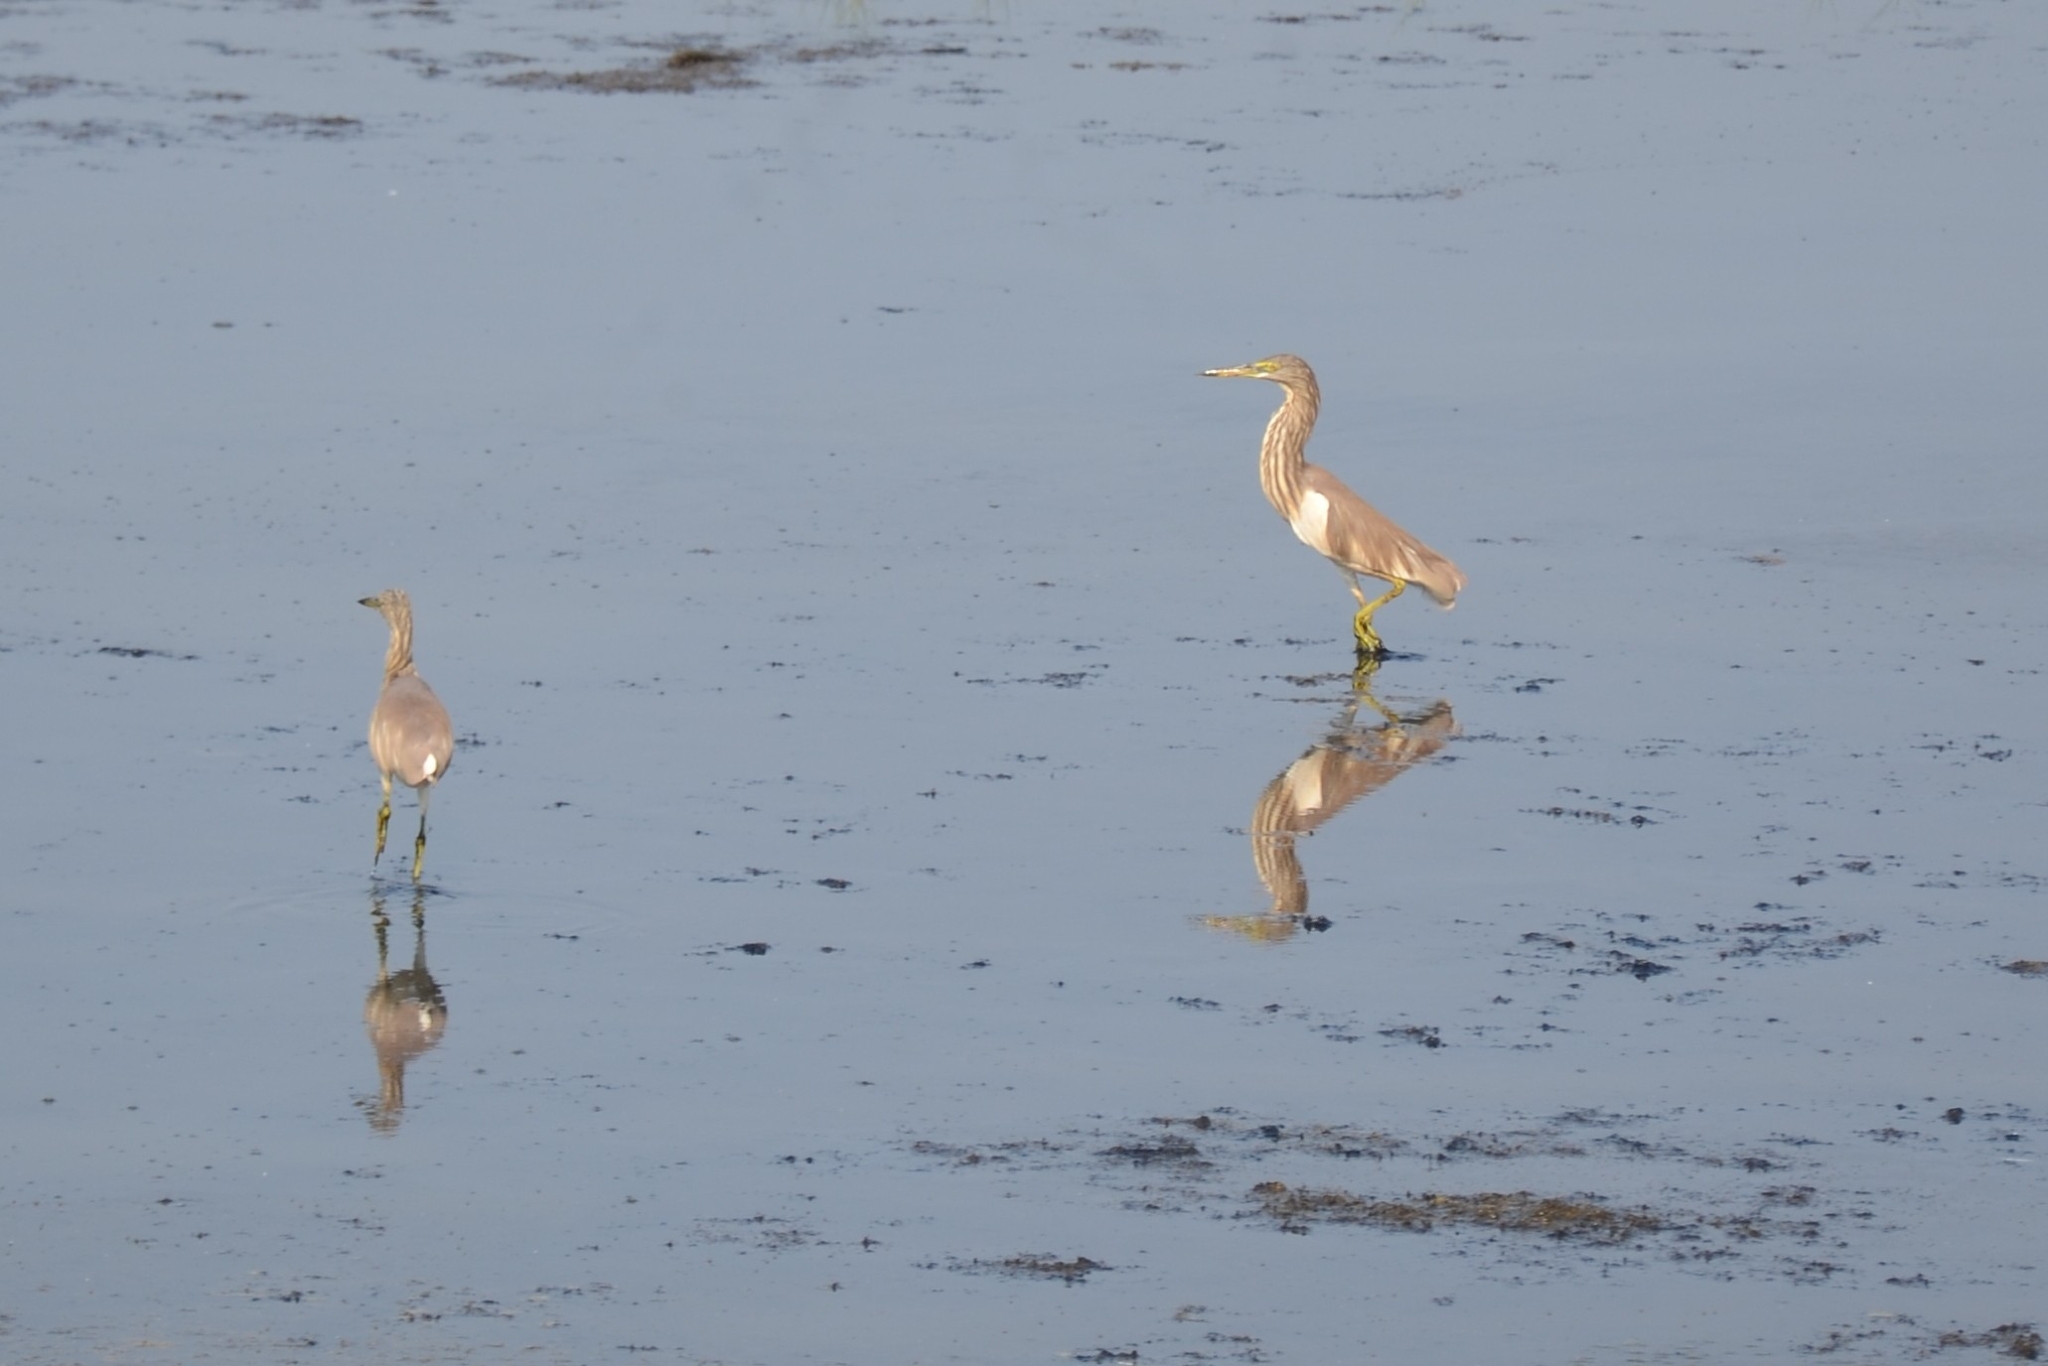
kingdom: Animalia
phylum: Chordata
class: Aves
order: Pelecaniformes
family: Ardeidae
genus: Ardeola
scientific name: Ardeola grayii
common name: Indian pond heron
